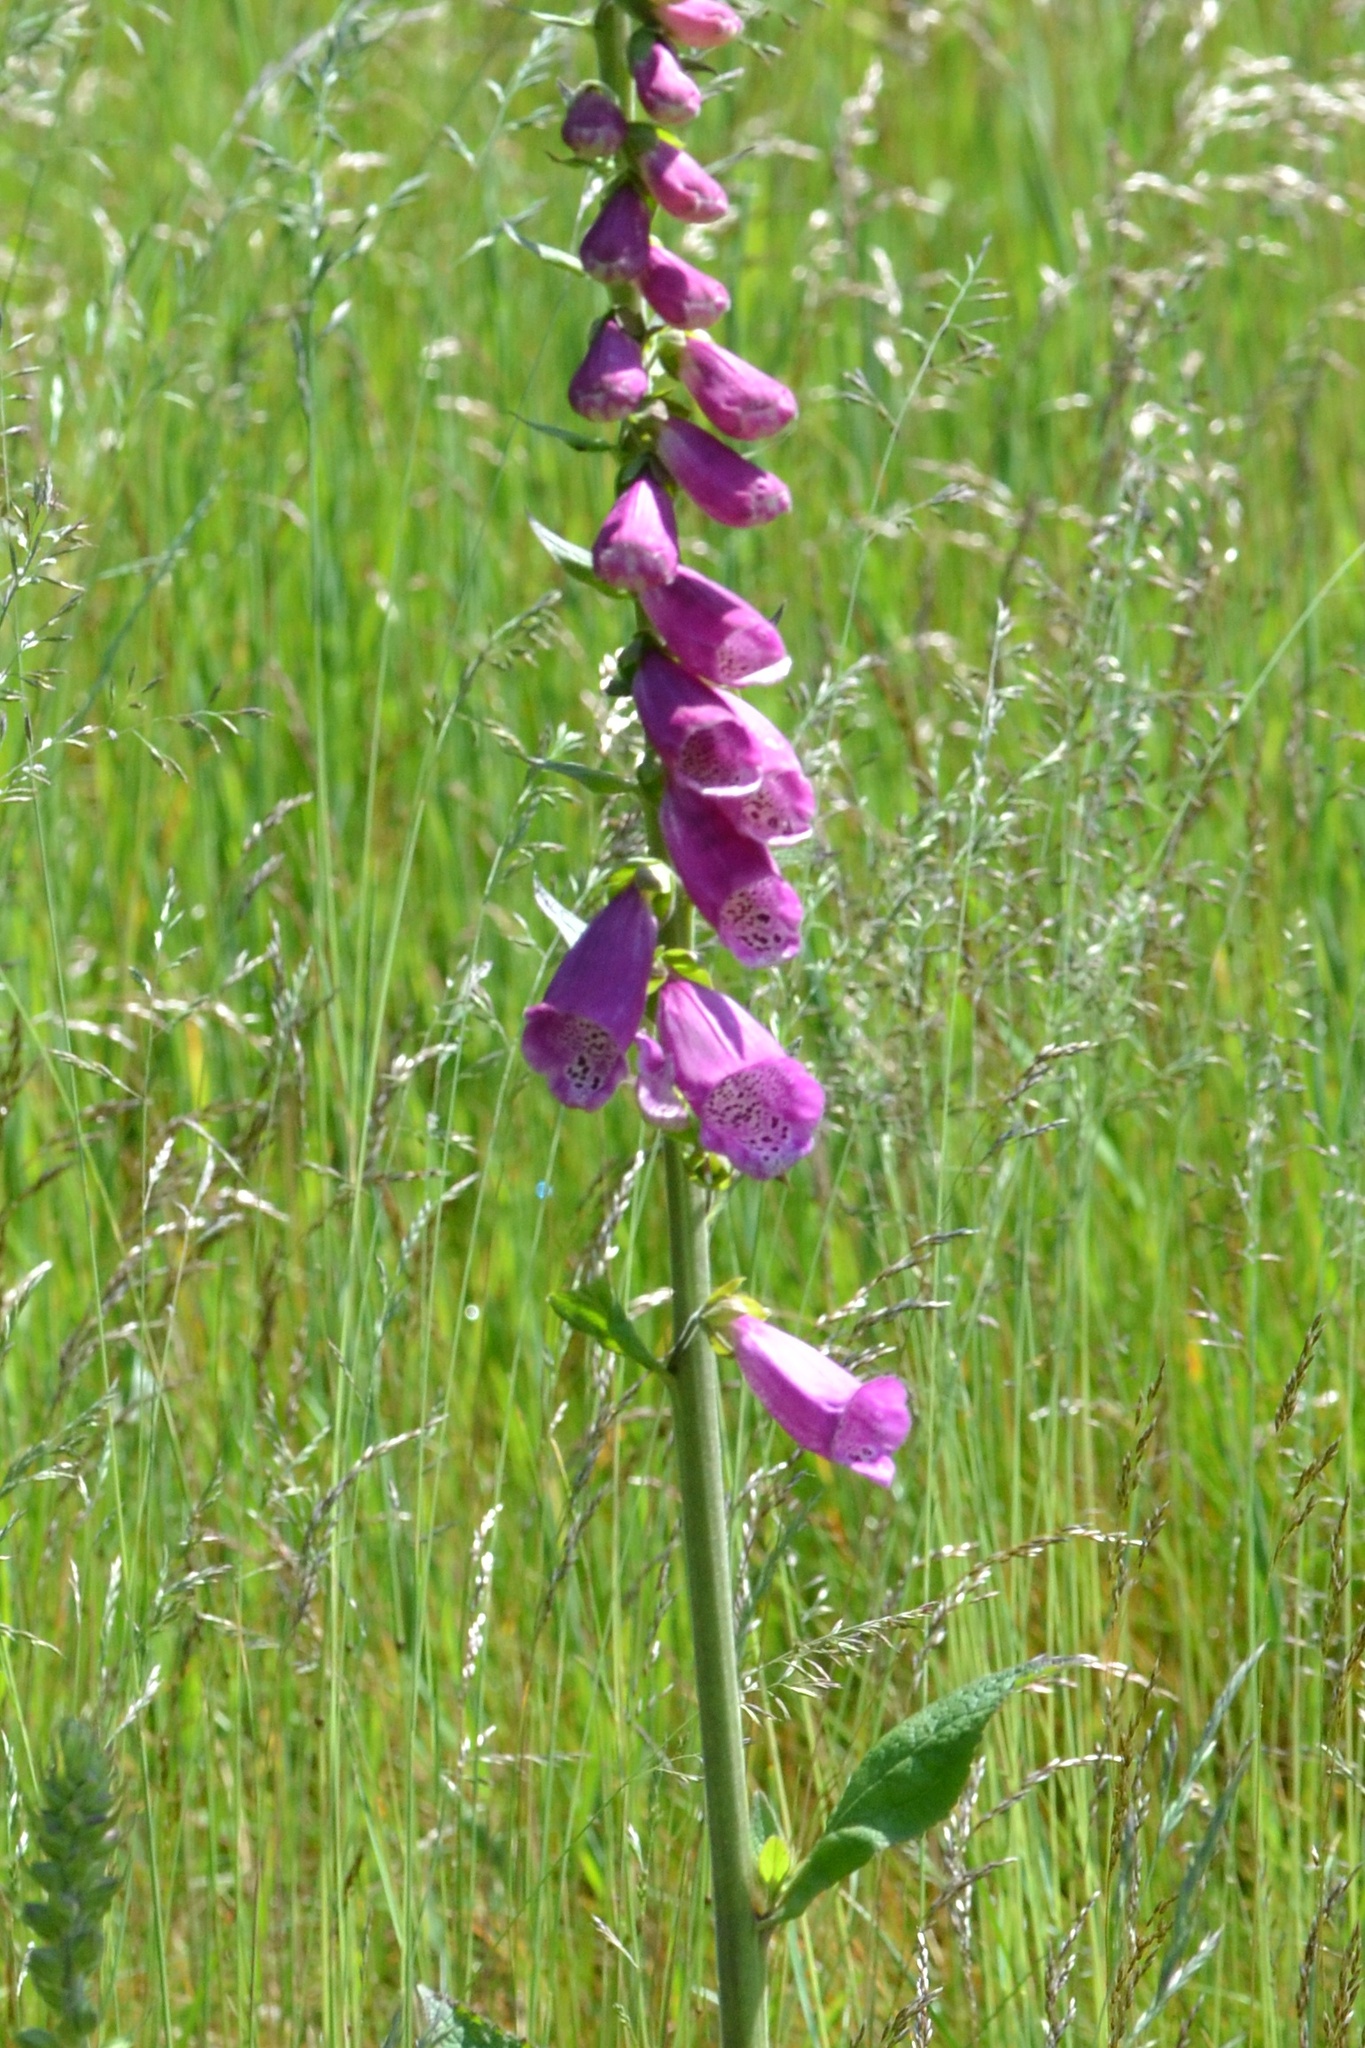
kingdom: Plantae
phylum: Tracheophyta
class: Magnoliopsida
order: Lamiales
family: Plantaginaceae
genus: Digitalis
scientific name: Digitalis purpurea
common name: Foxglove
